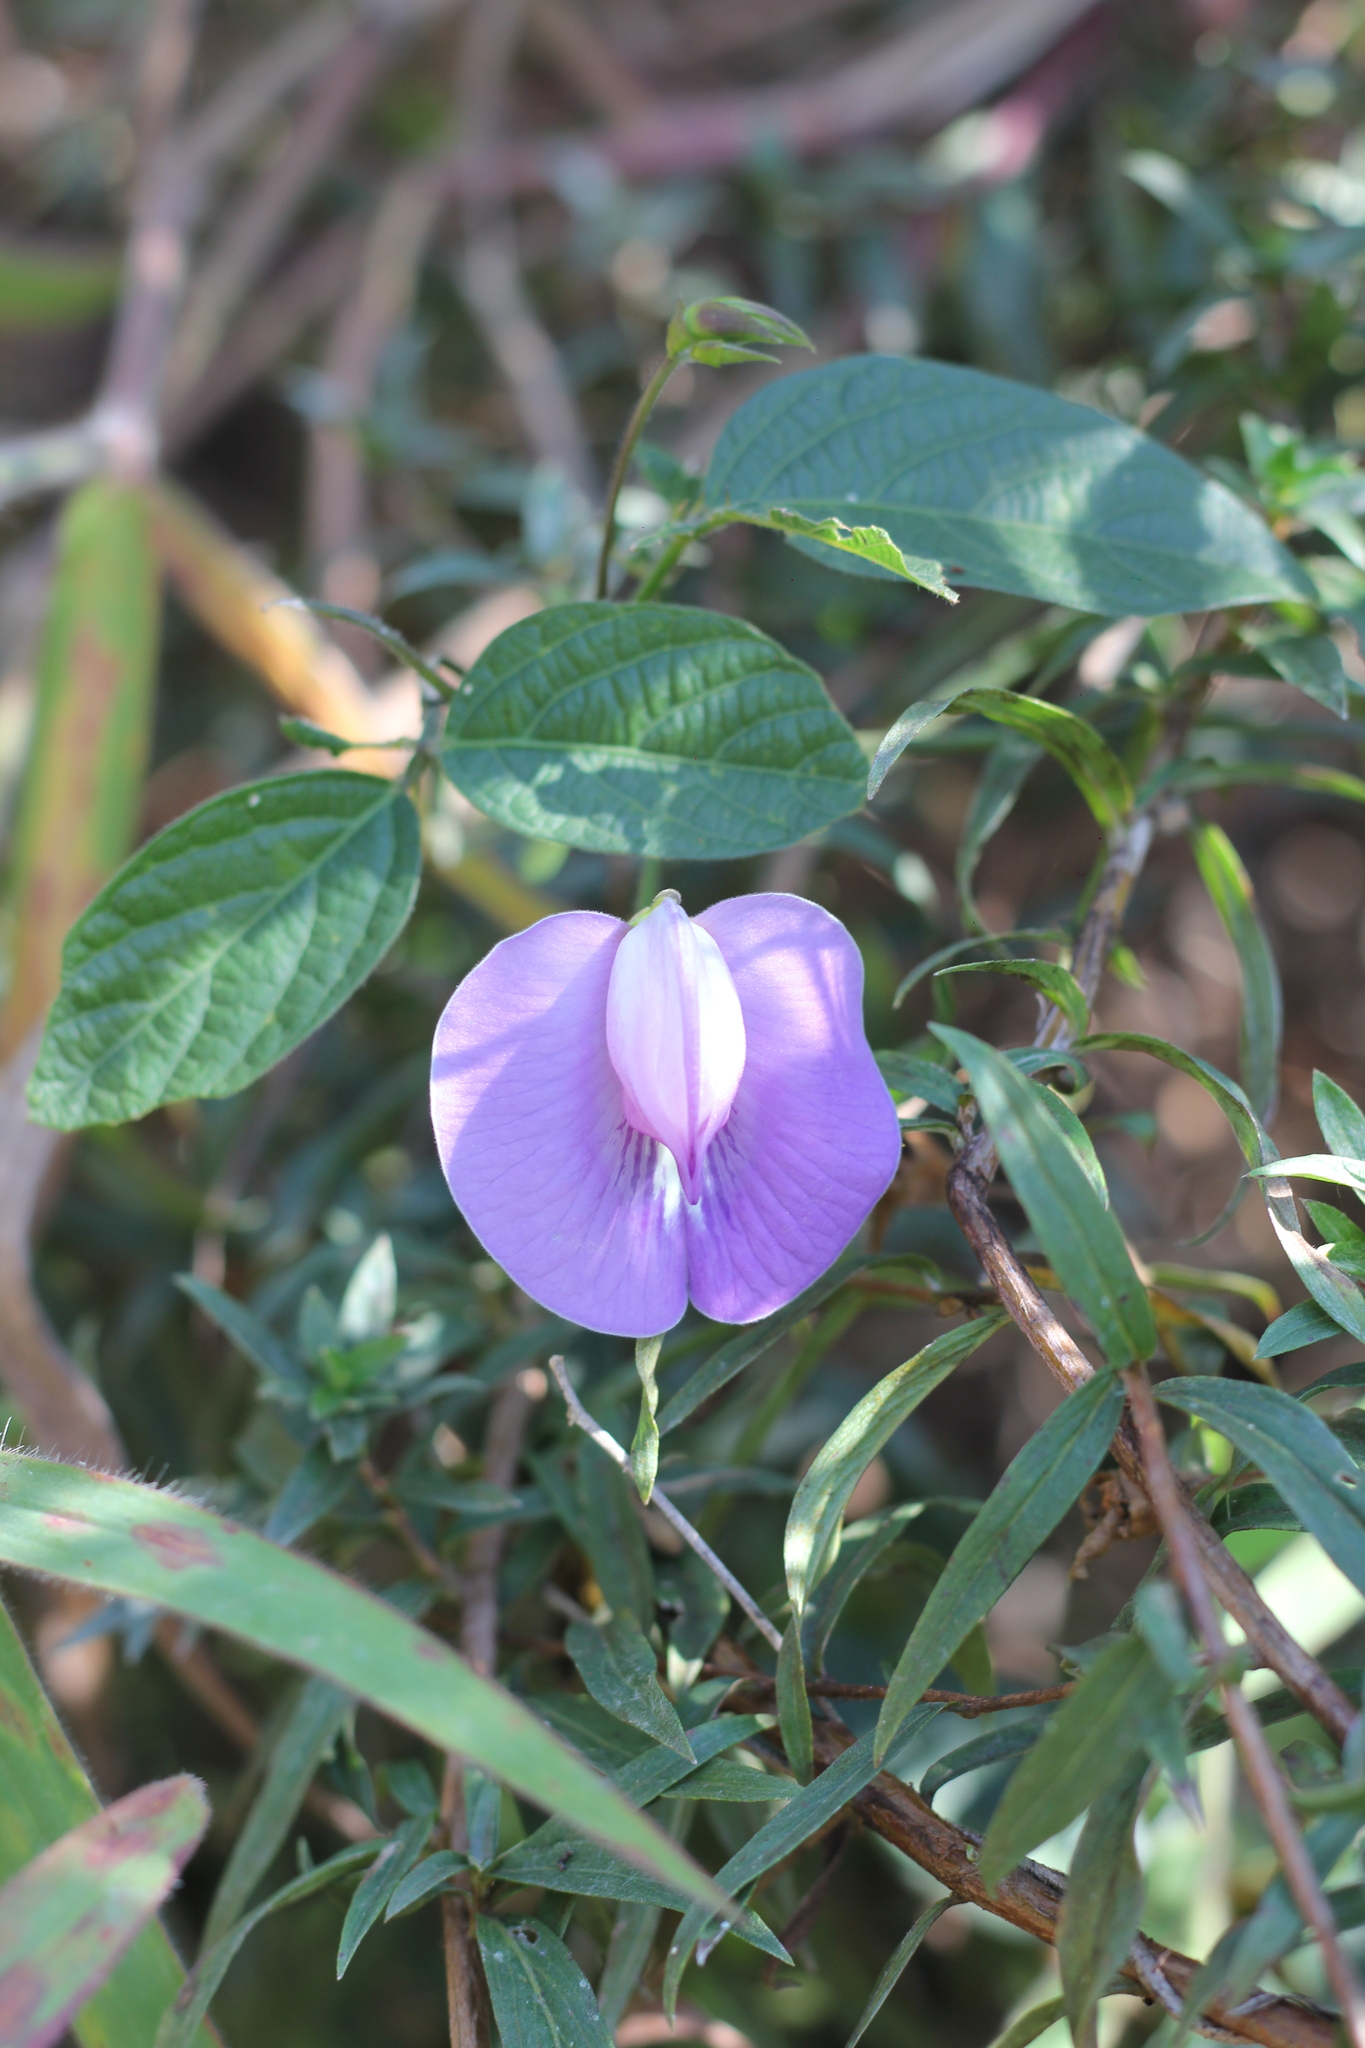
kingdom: Plantae
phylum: Tracheophyta
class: Magnoliopsida
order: Fabales
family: Fabaceae
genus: Centrosema
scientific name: Centrosema virginianum
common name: Butterfly-pea
